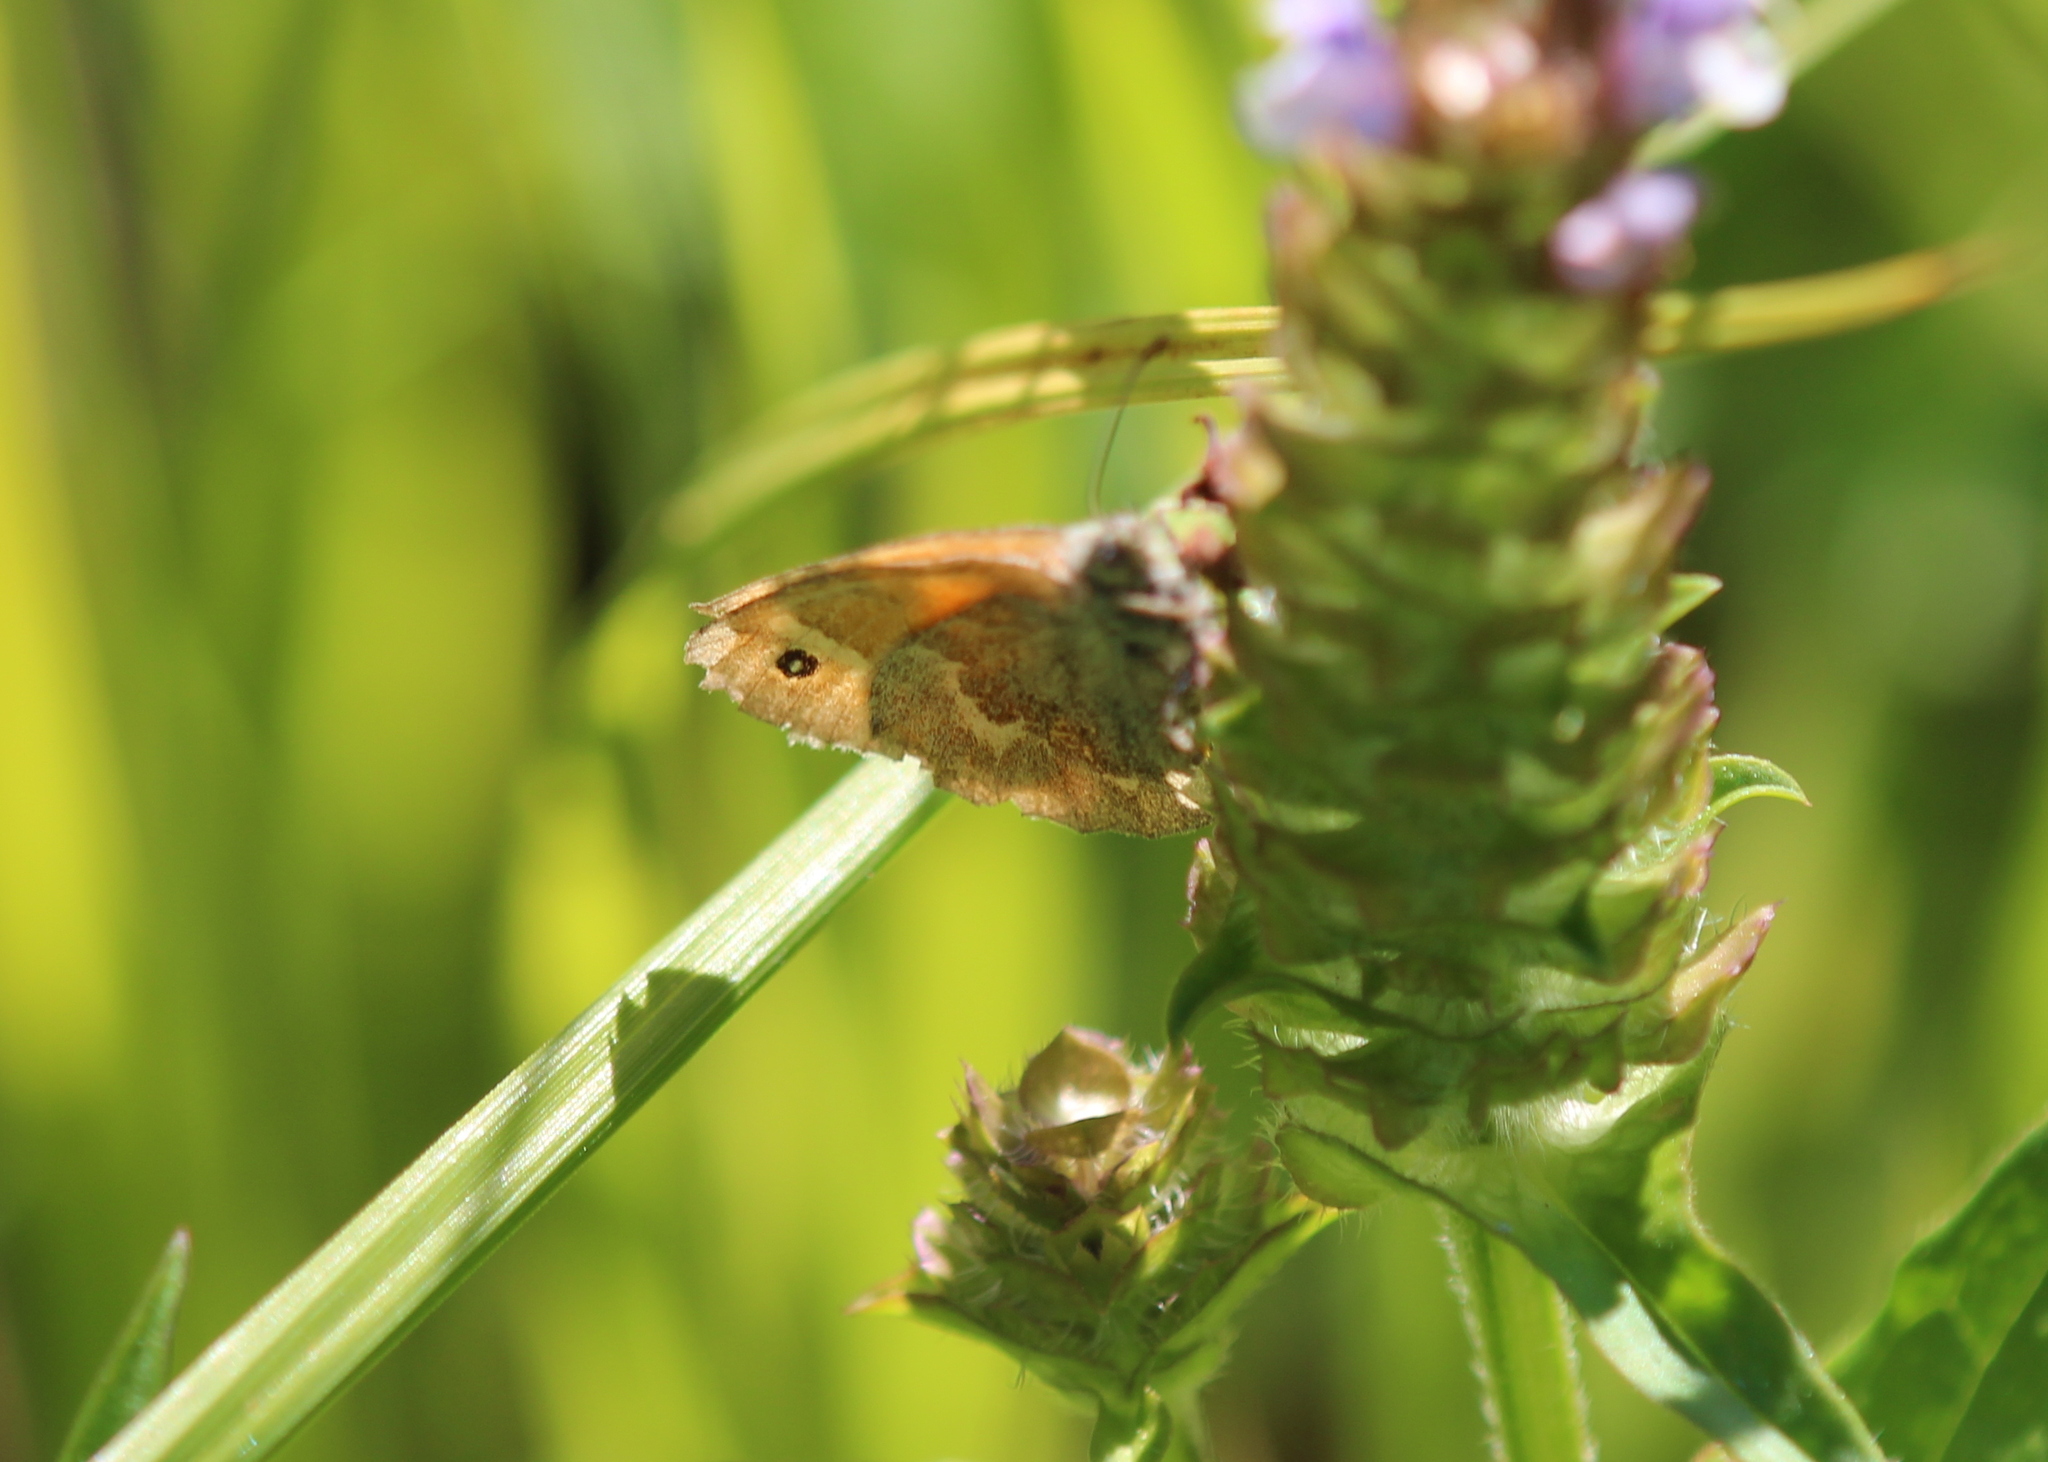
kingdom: Animalia
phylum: Arthropoda
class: Insecta
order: Lepidoptera
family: Nymphalidae
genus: Coenonympha
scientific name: Coenonympha california
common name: Common ringlet
